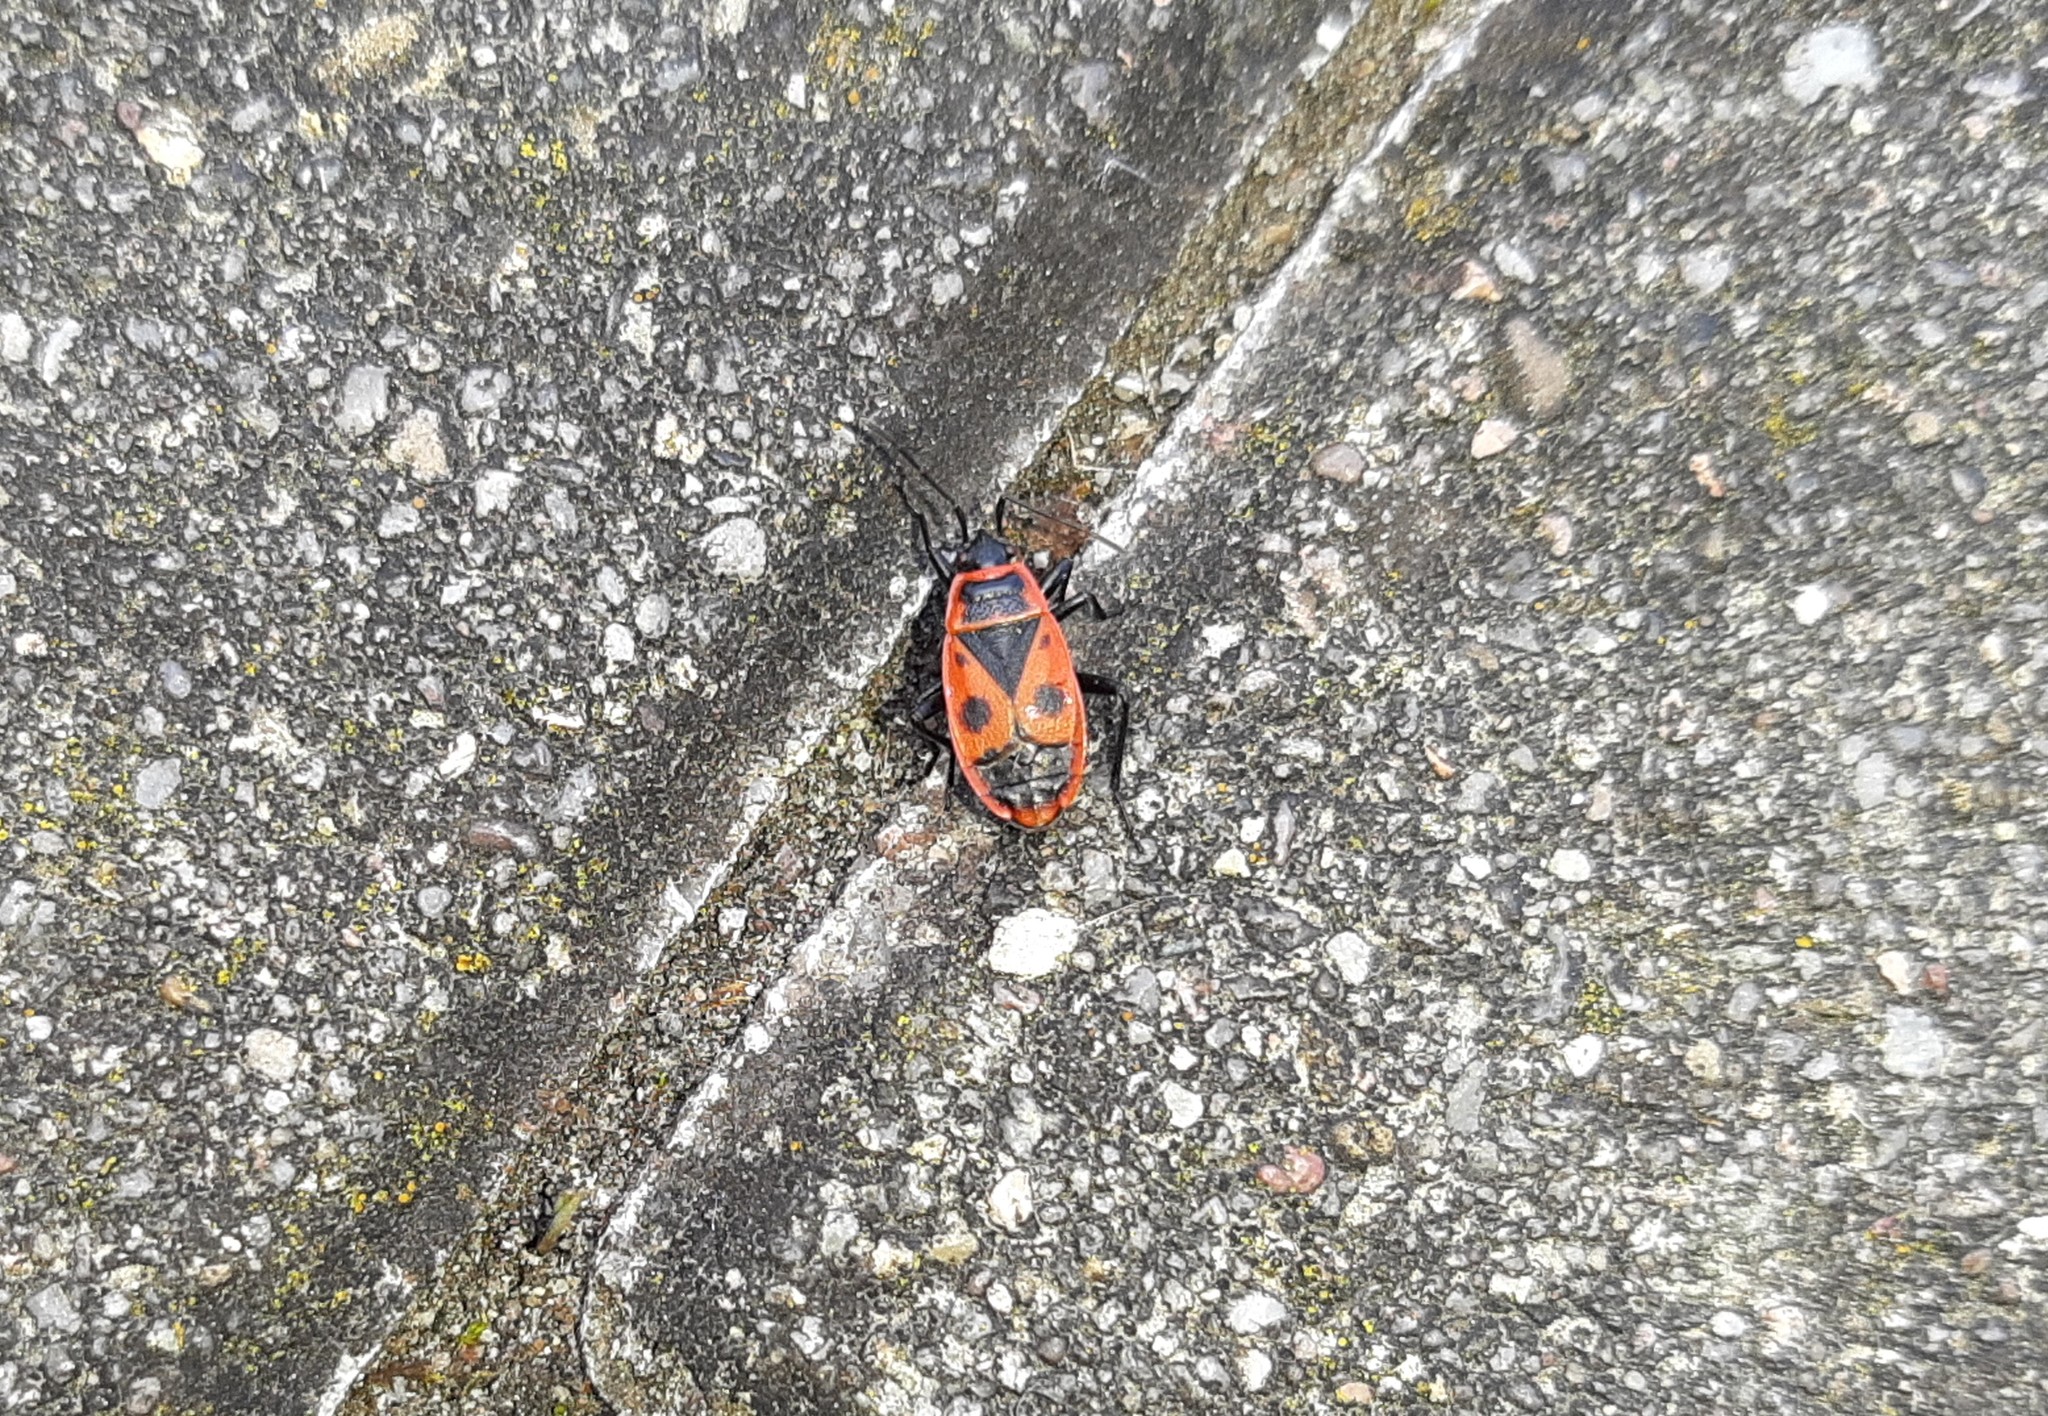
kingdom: Animalia
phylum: Arthropoda
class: Insecta
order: Hemiptera
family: Pyrrhocoridae
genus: Pyrrhocoris
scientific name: Pyrrhocoris apterus
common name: Firebug
